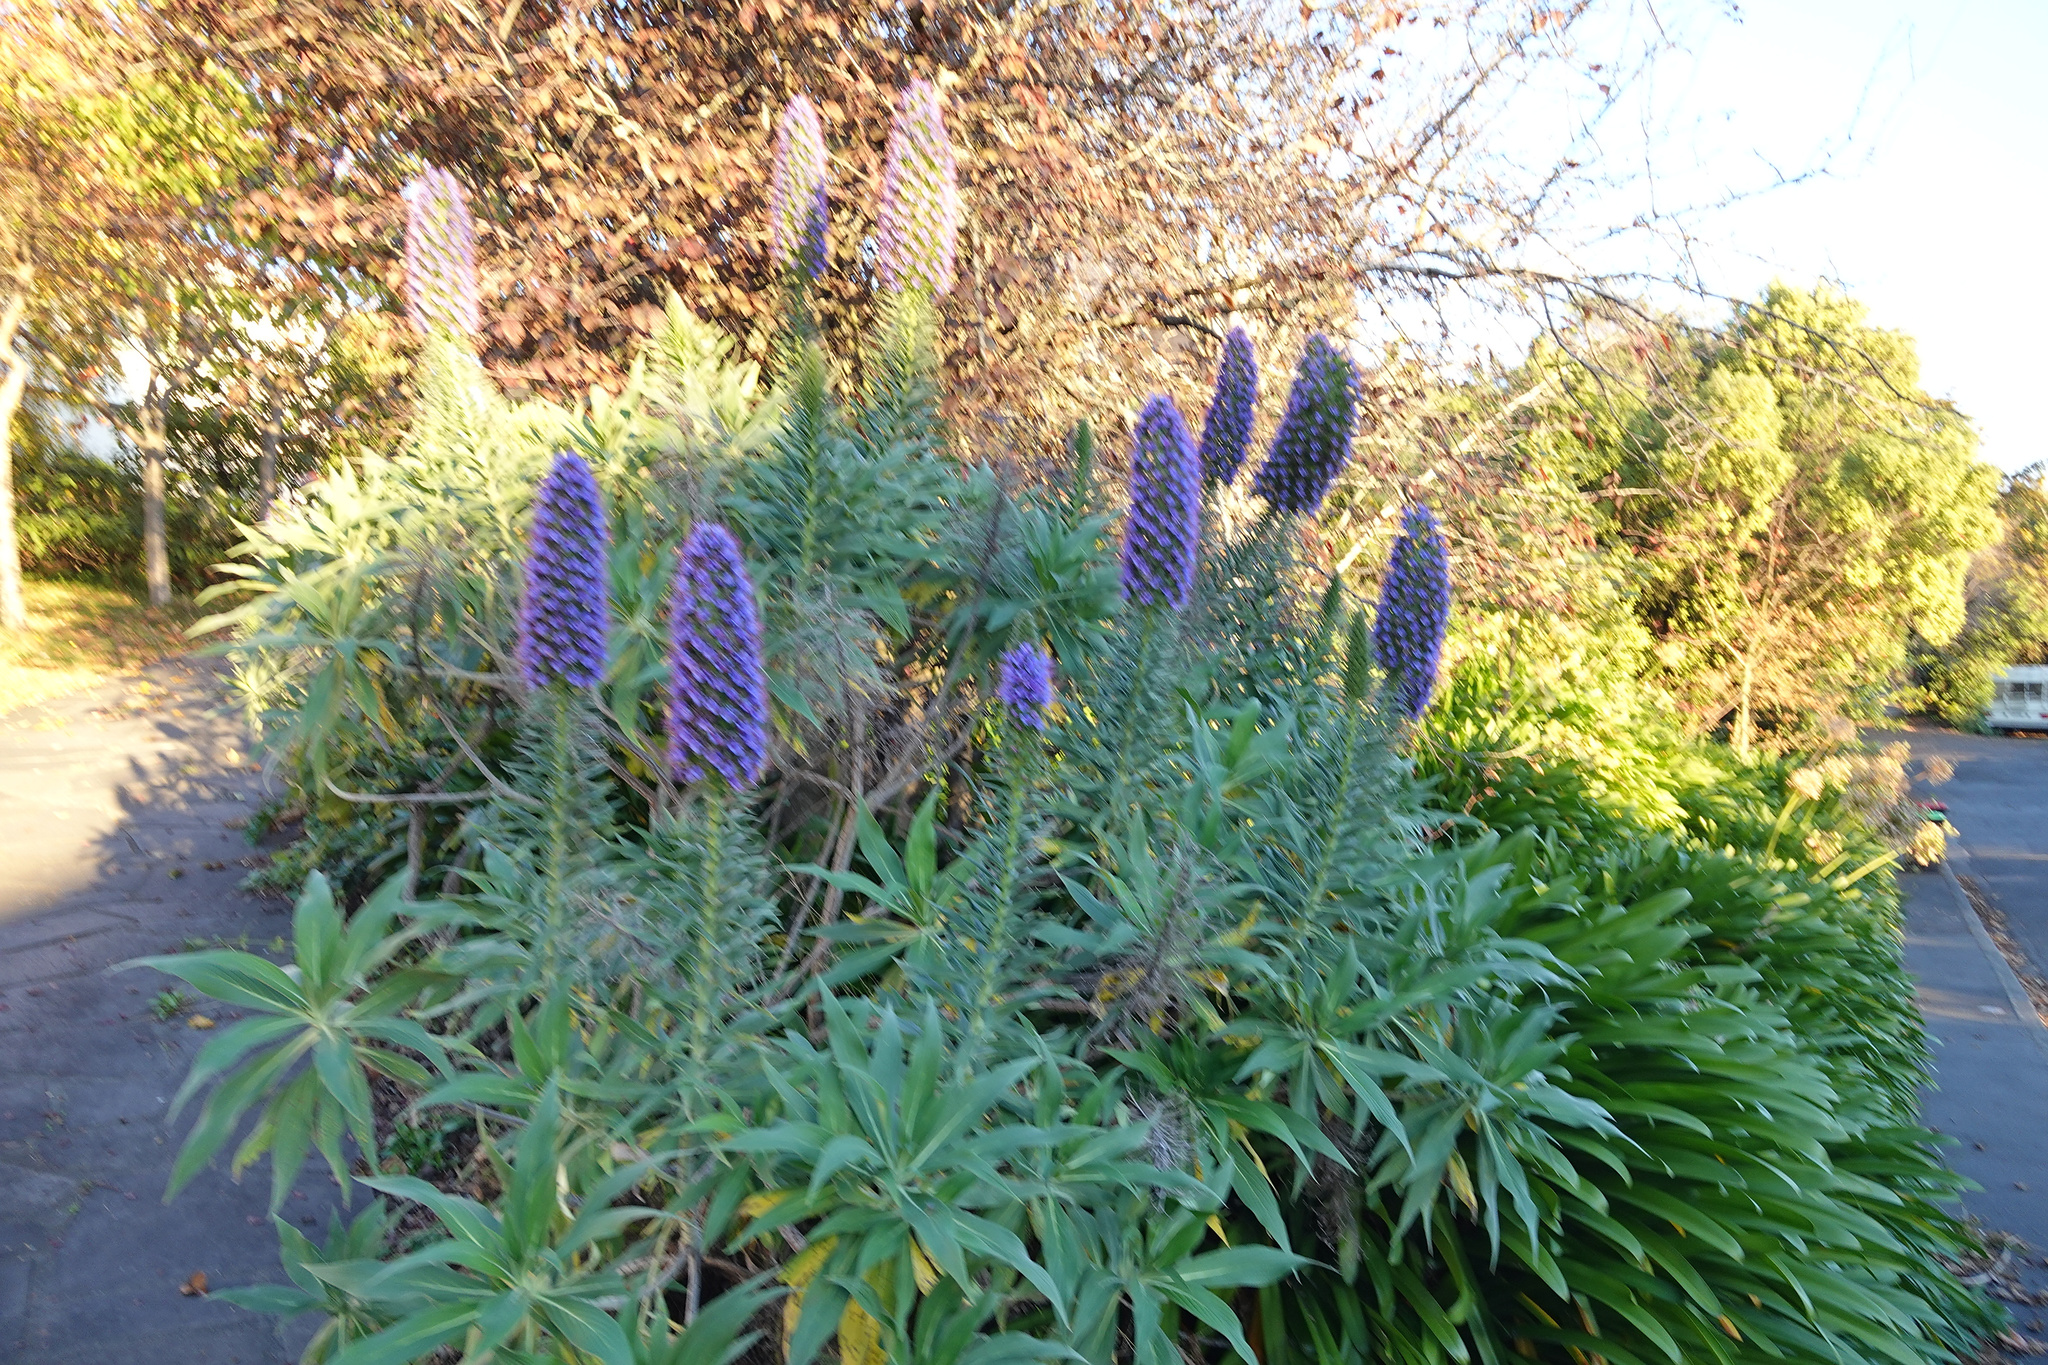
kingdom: Plantae
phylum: Tracheophyta
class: Magnoliopsida
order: Boraginales
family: Boraginaceae
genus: Echium
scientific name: Echium candicans
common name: Pride of madeira
